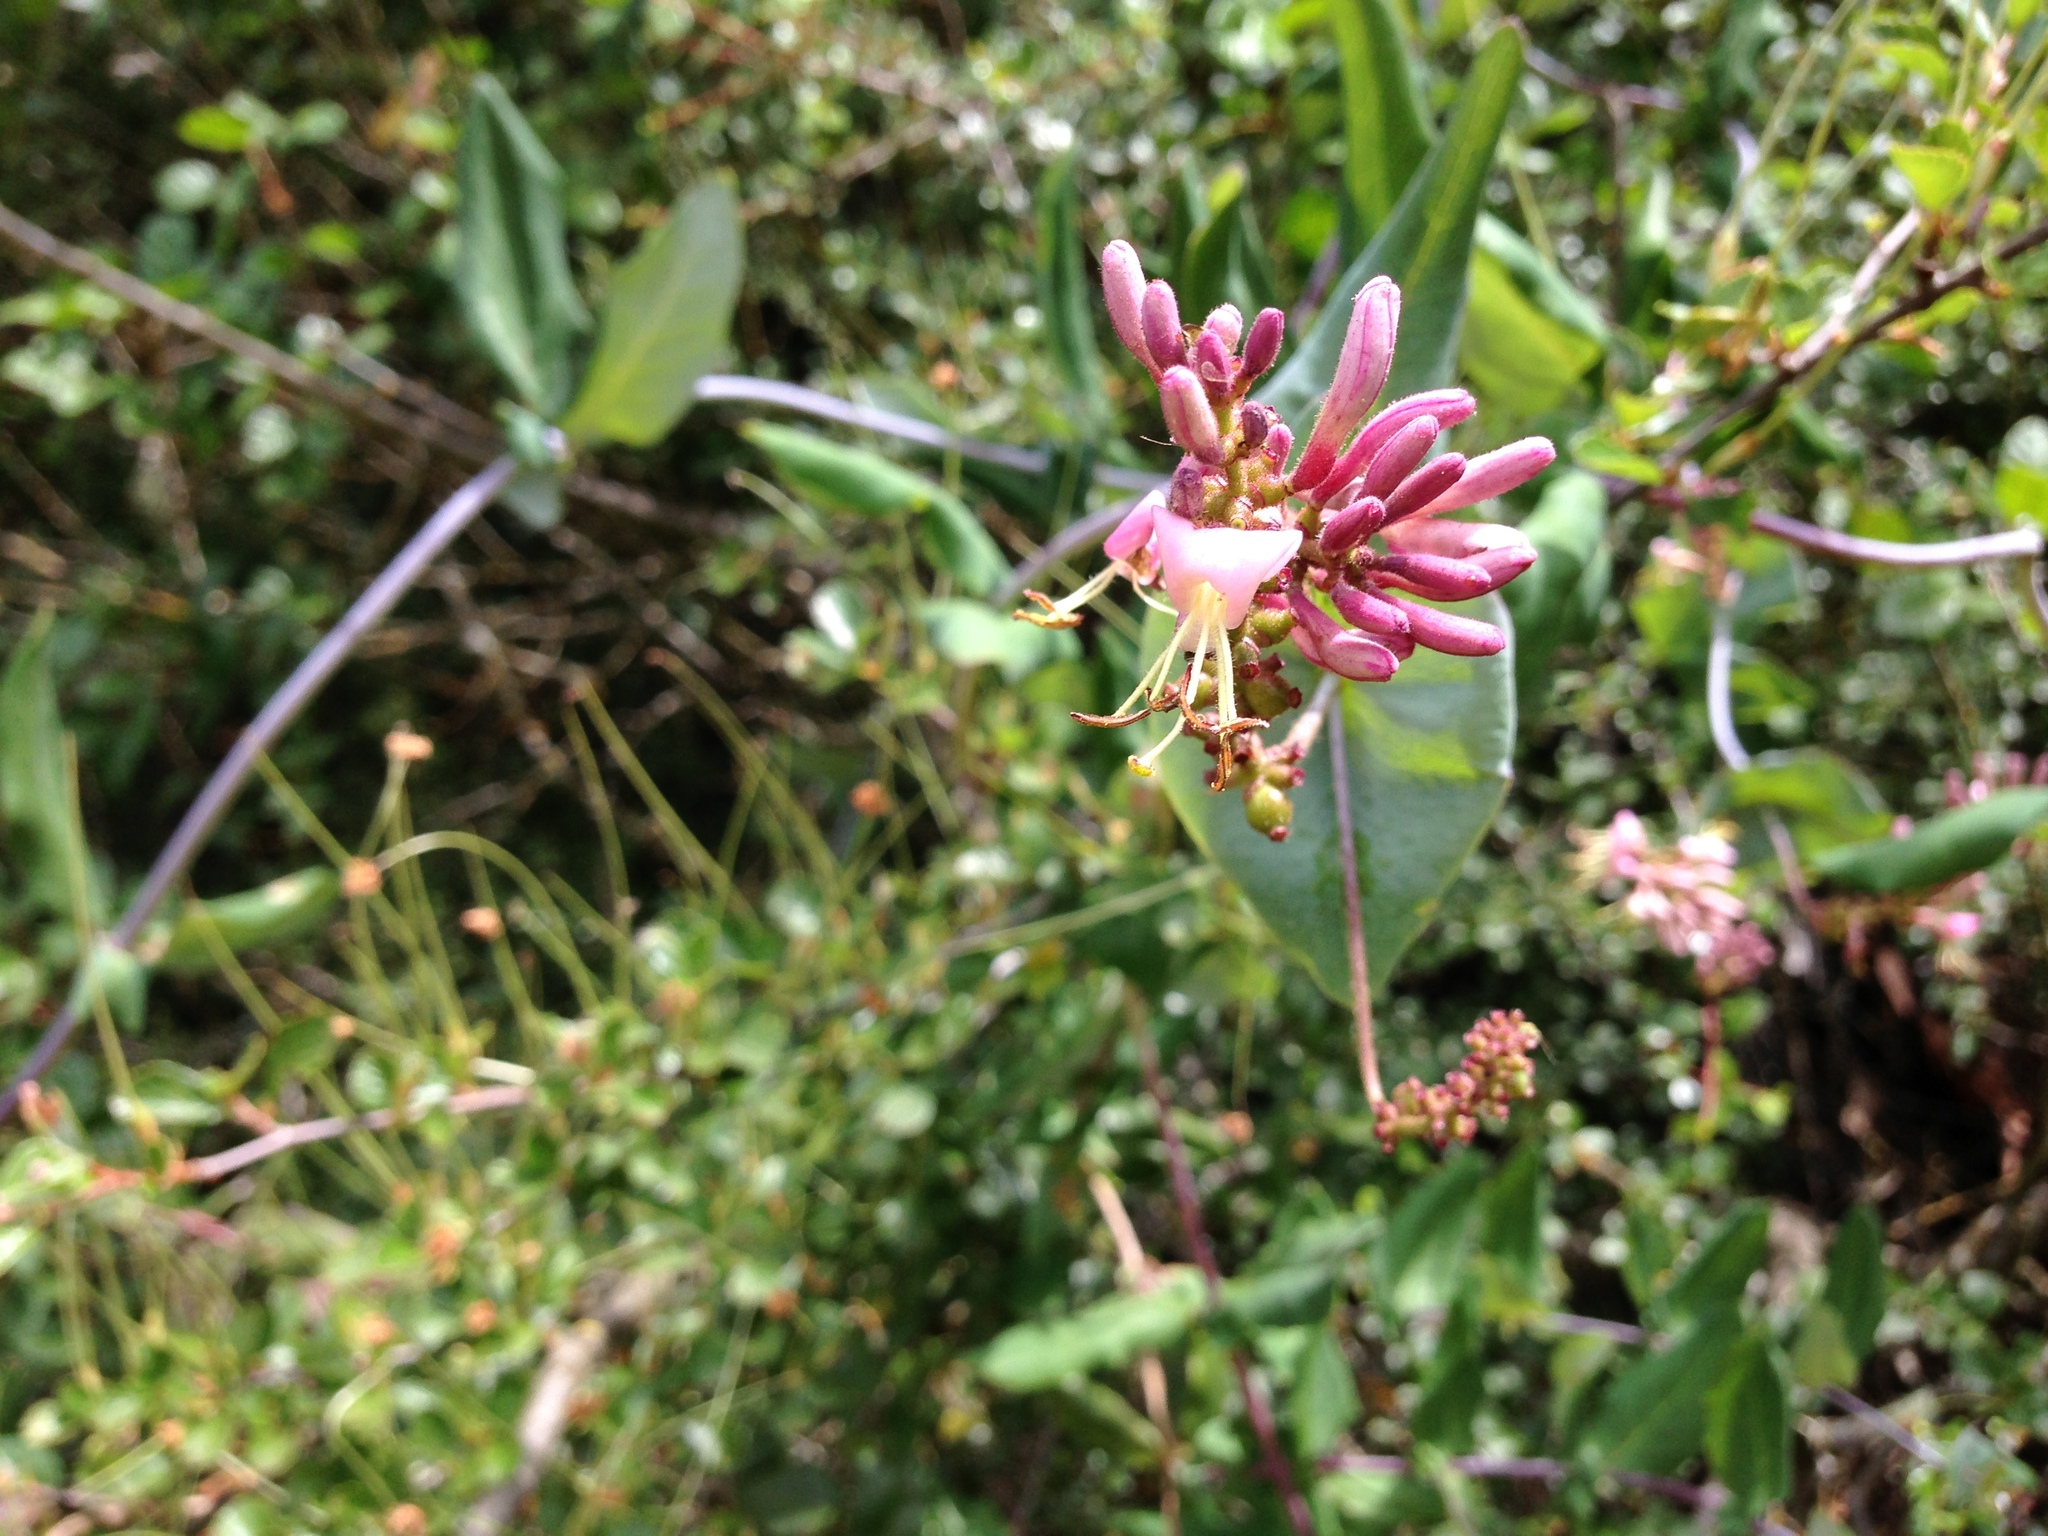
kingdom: Plantae
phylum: Tracheophyta
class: Magnoliopsida
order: Dipsacales
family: Caprifoliaceae
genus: Lonicera
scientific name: Lonicera hispidula
